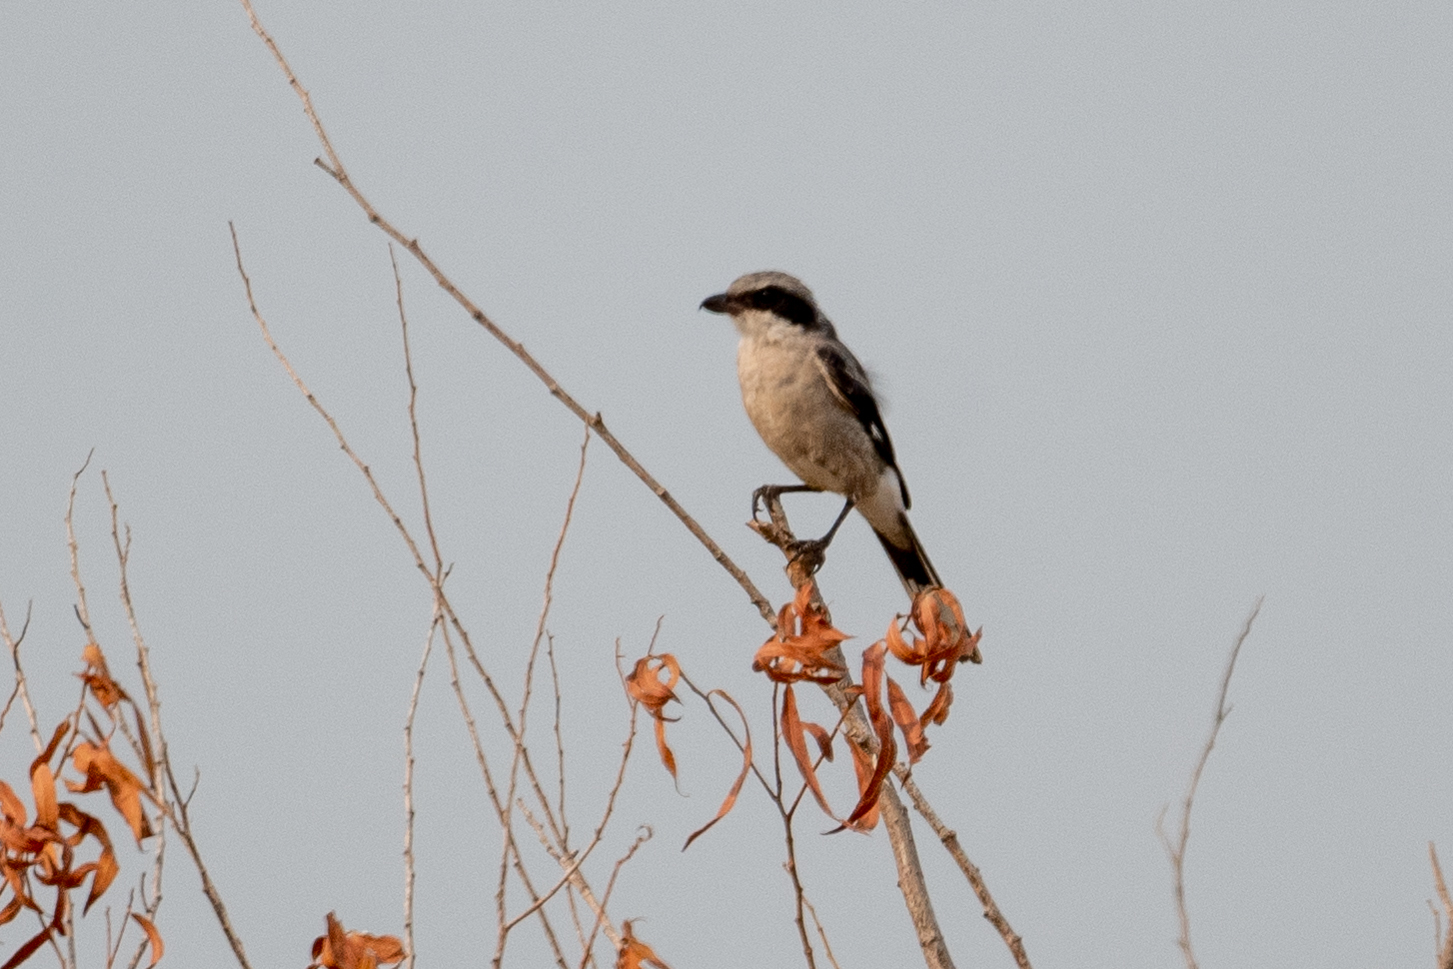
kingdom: Animalia
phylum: Chordata
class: Aves
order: Passeriformes
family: Laniidae
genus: Lanius
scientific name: Lanius ludovicianus
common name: Loggerhead shrike
